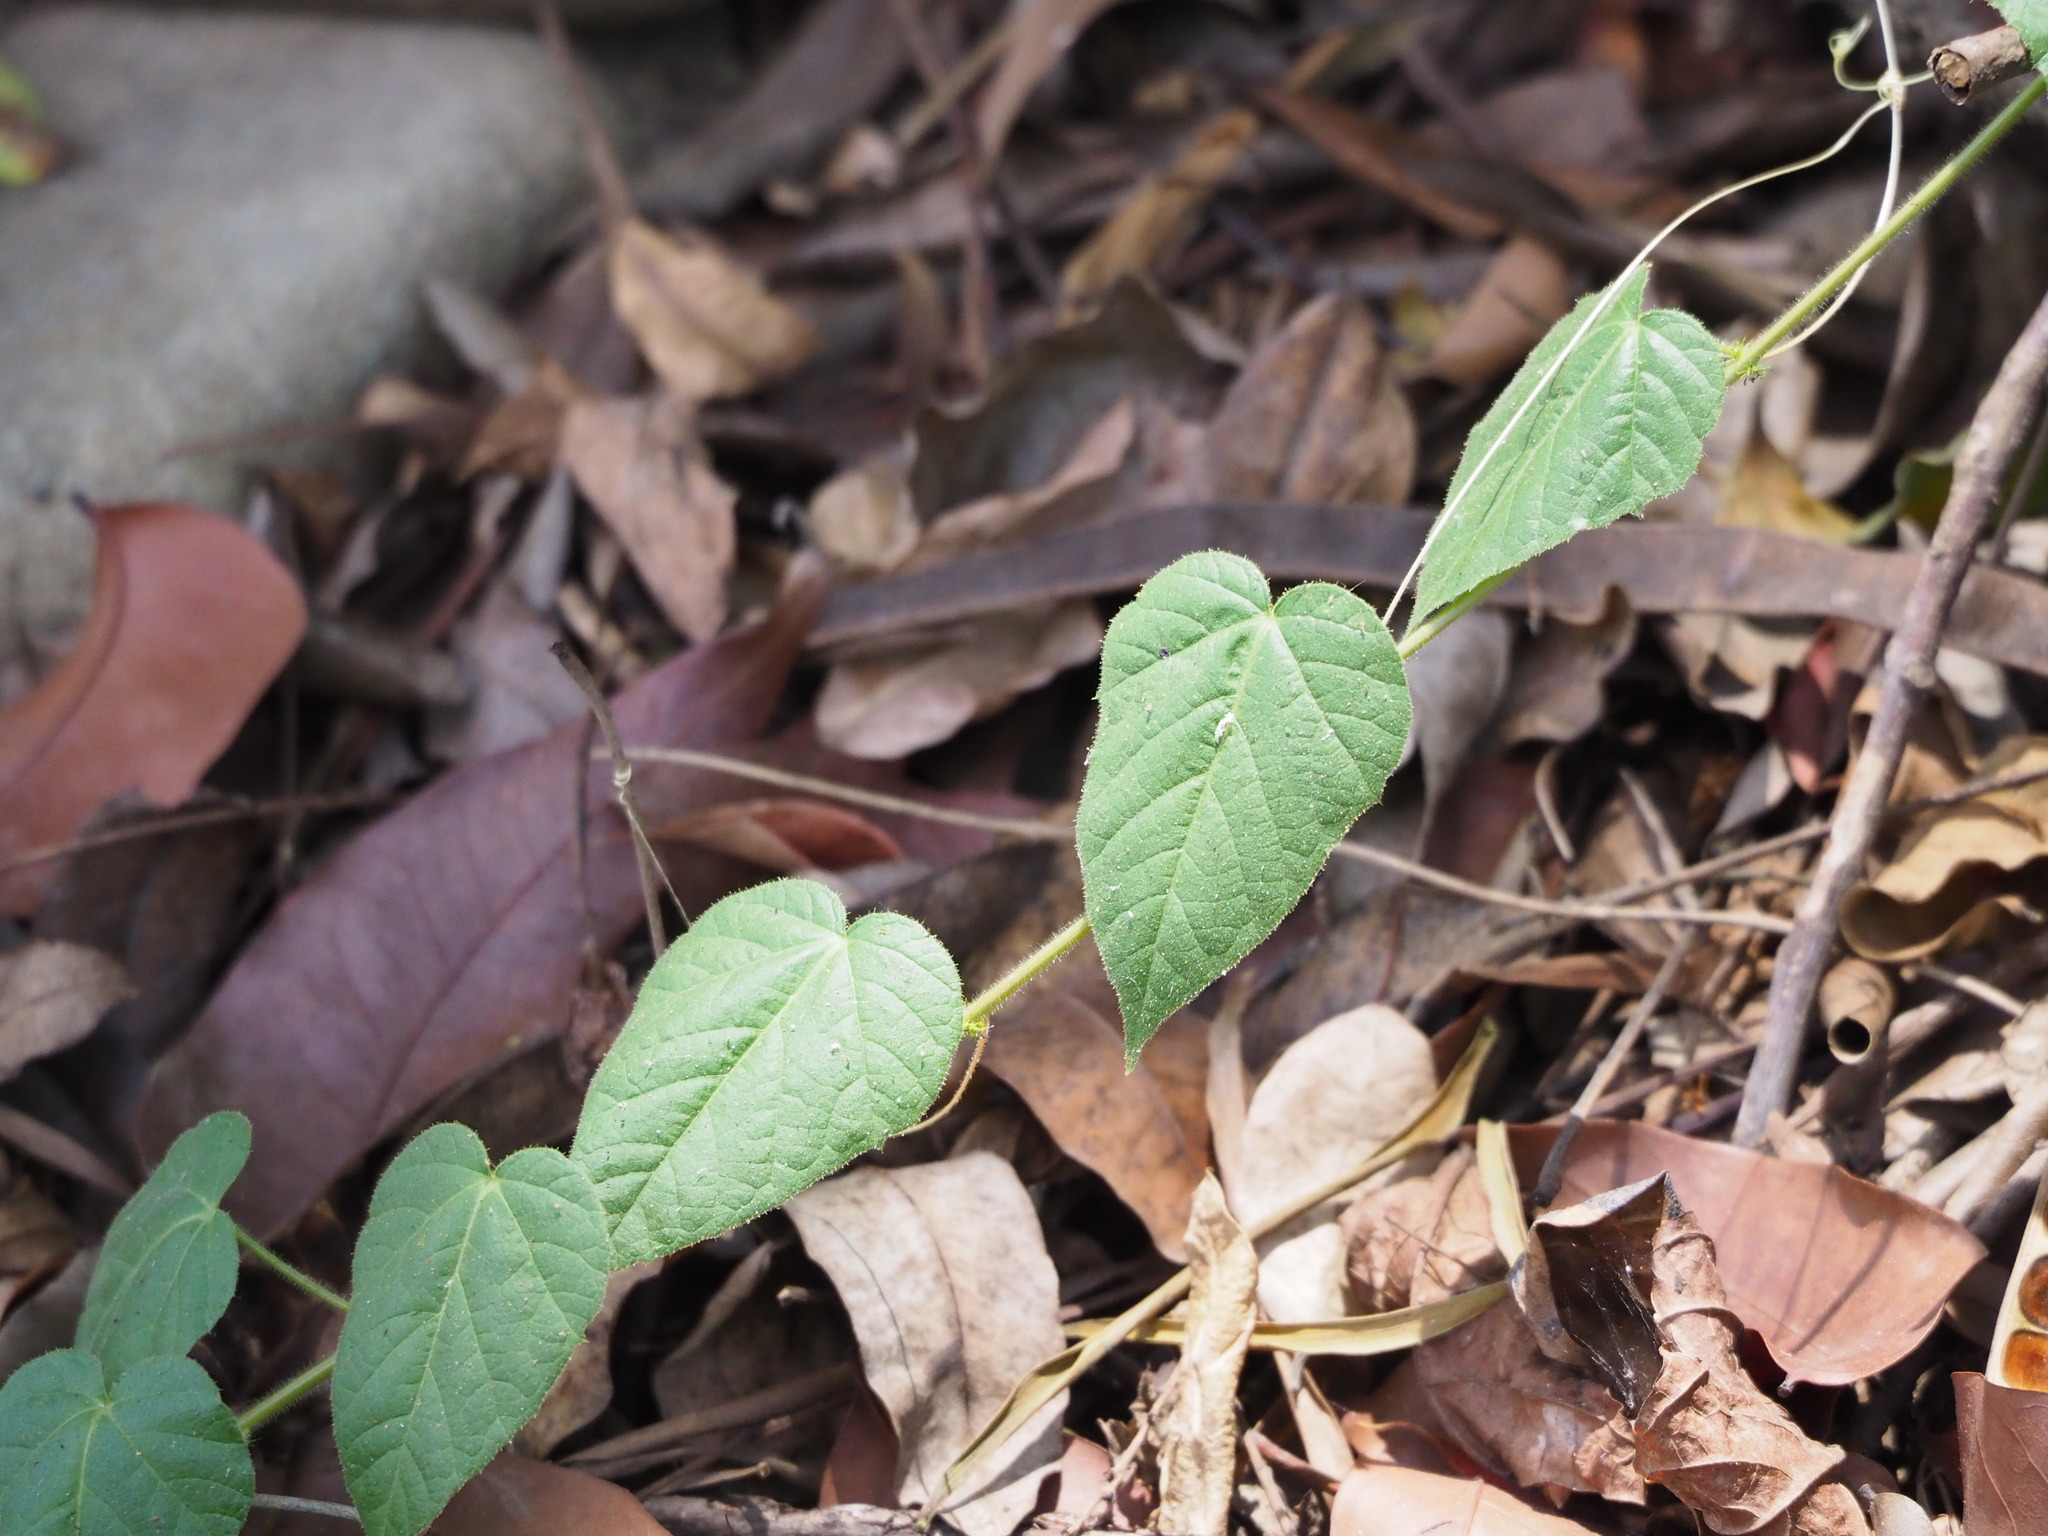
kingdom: Plantae
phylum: Tracheophyta
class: Magnoliopsida
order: Malpighiales
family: Passifloraceae
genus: Passiflora
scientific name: Passiflora vesicaria
